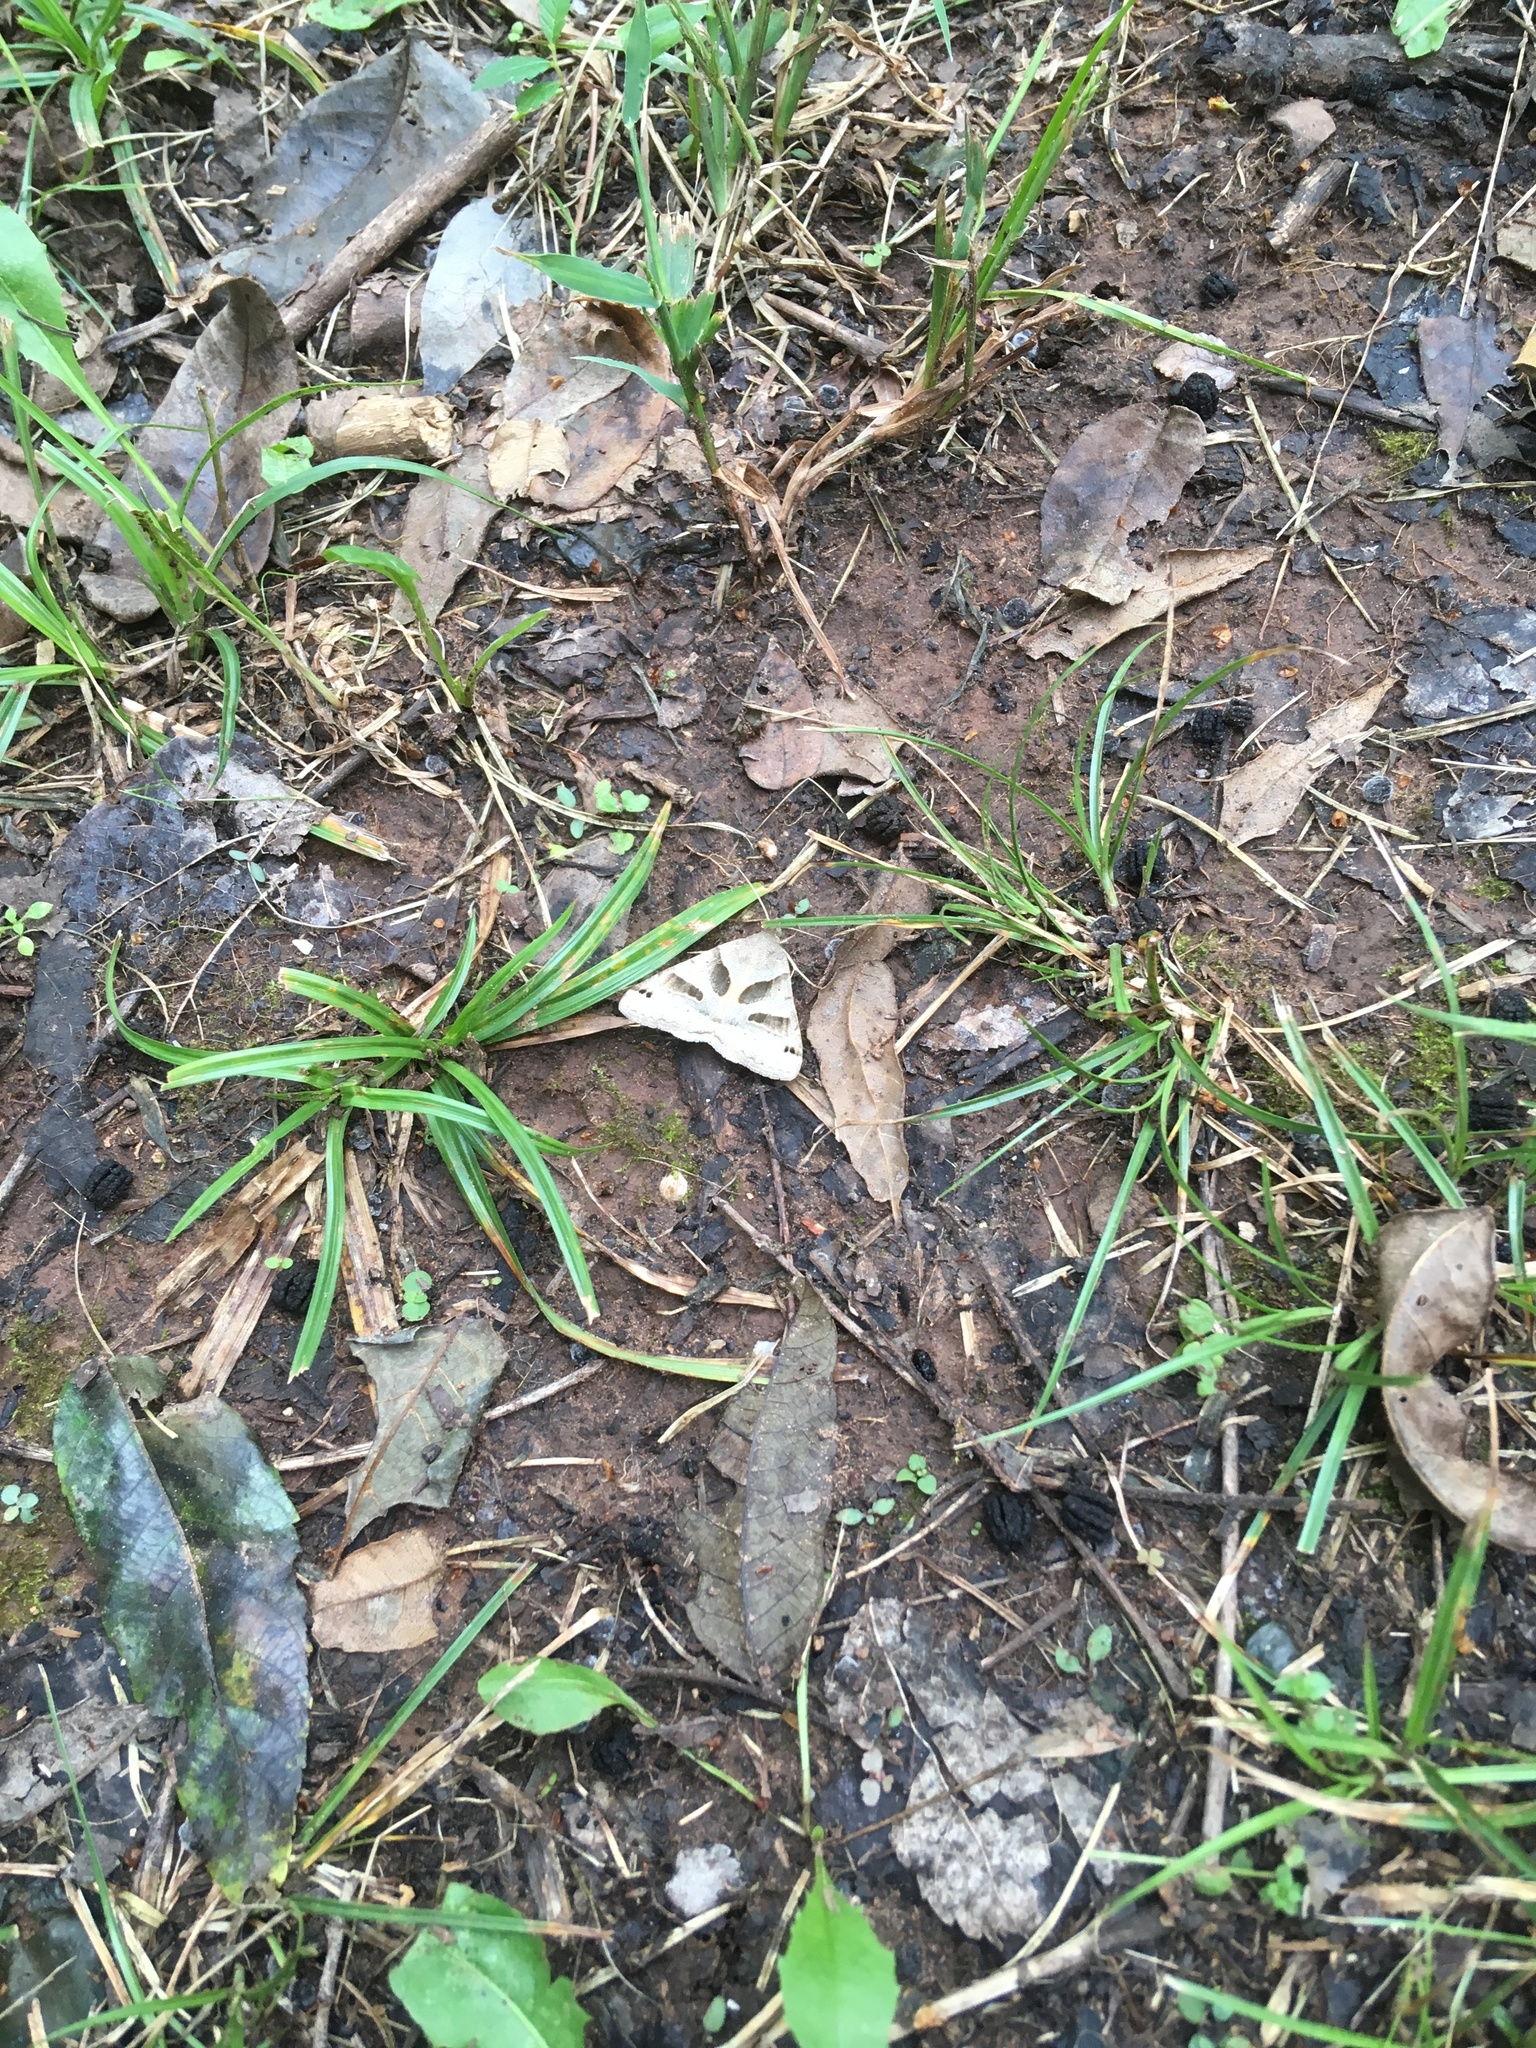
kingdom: Animalia
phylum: Arthropoda
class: Insecta
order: Lepidoptera
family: Erebidae
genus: Caenurgina
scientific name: Caenurgina erechtea
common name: Forage looper moth
